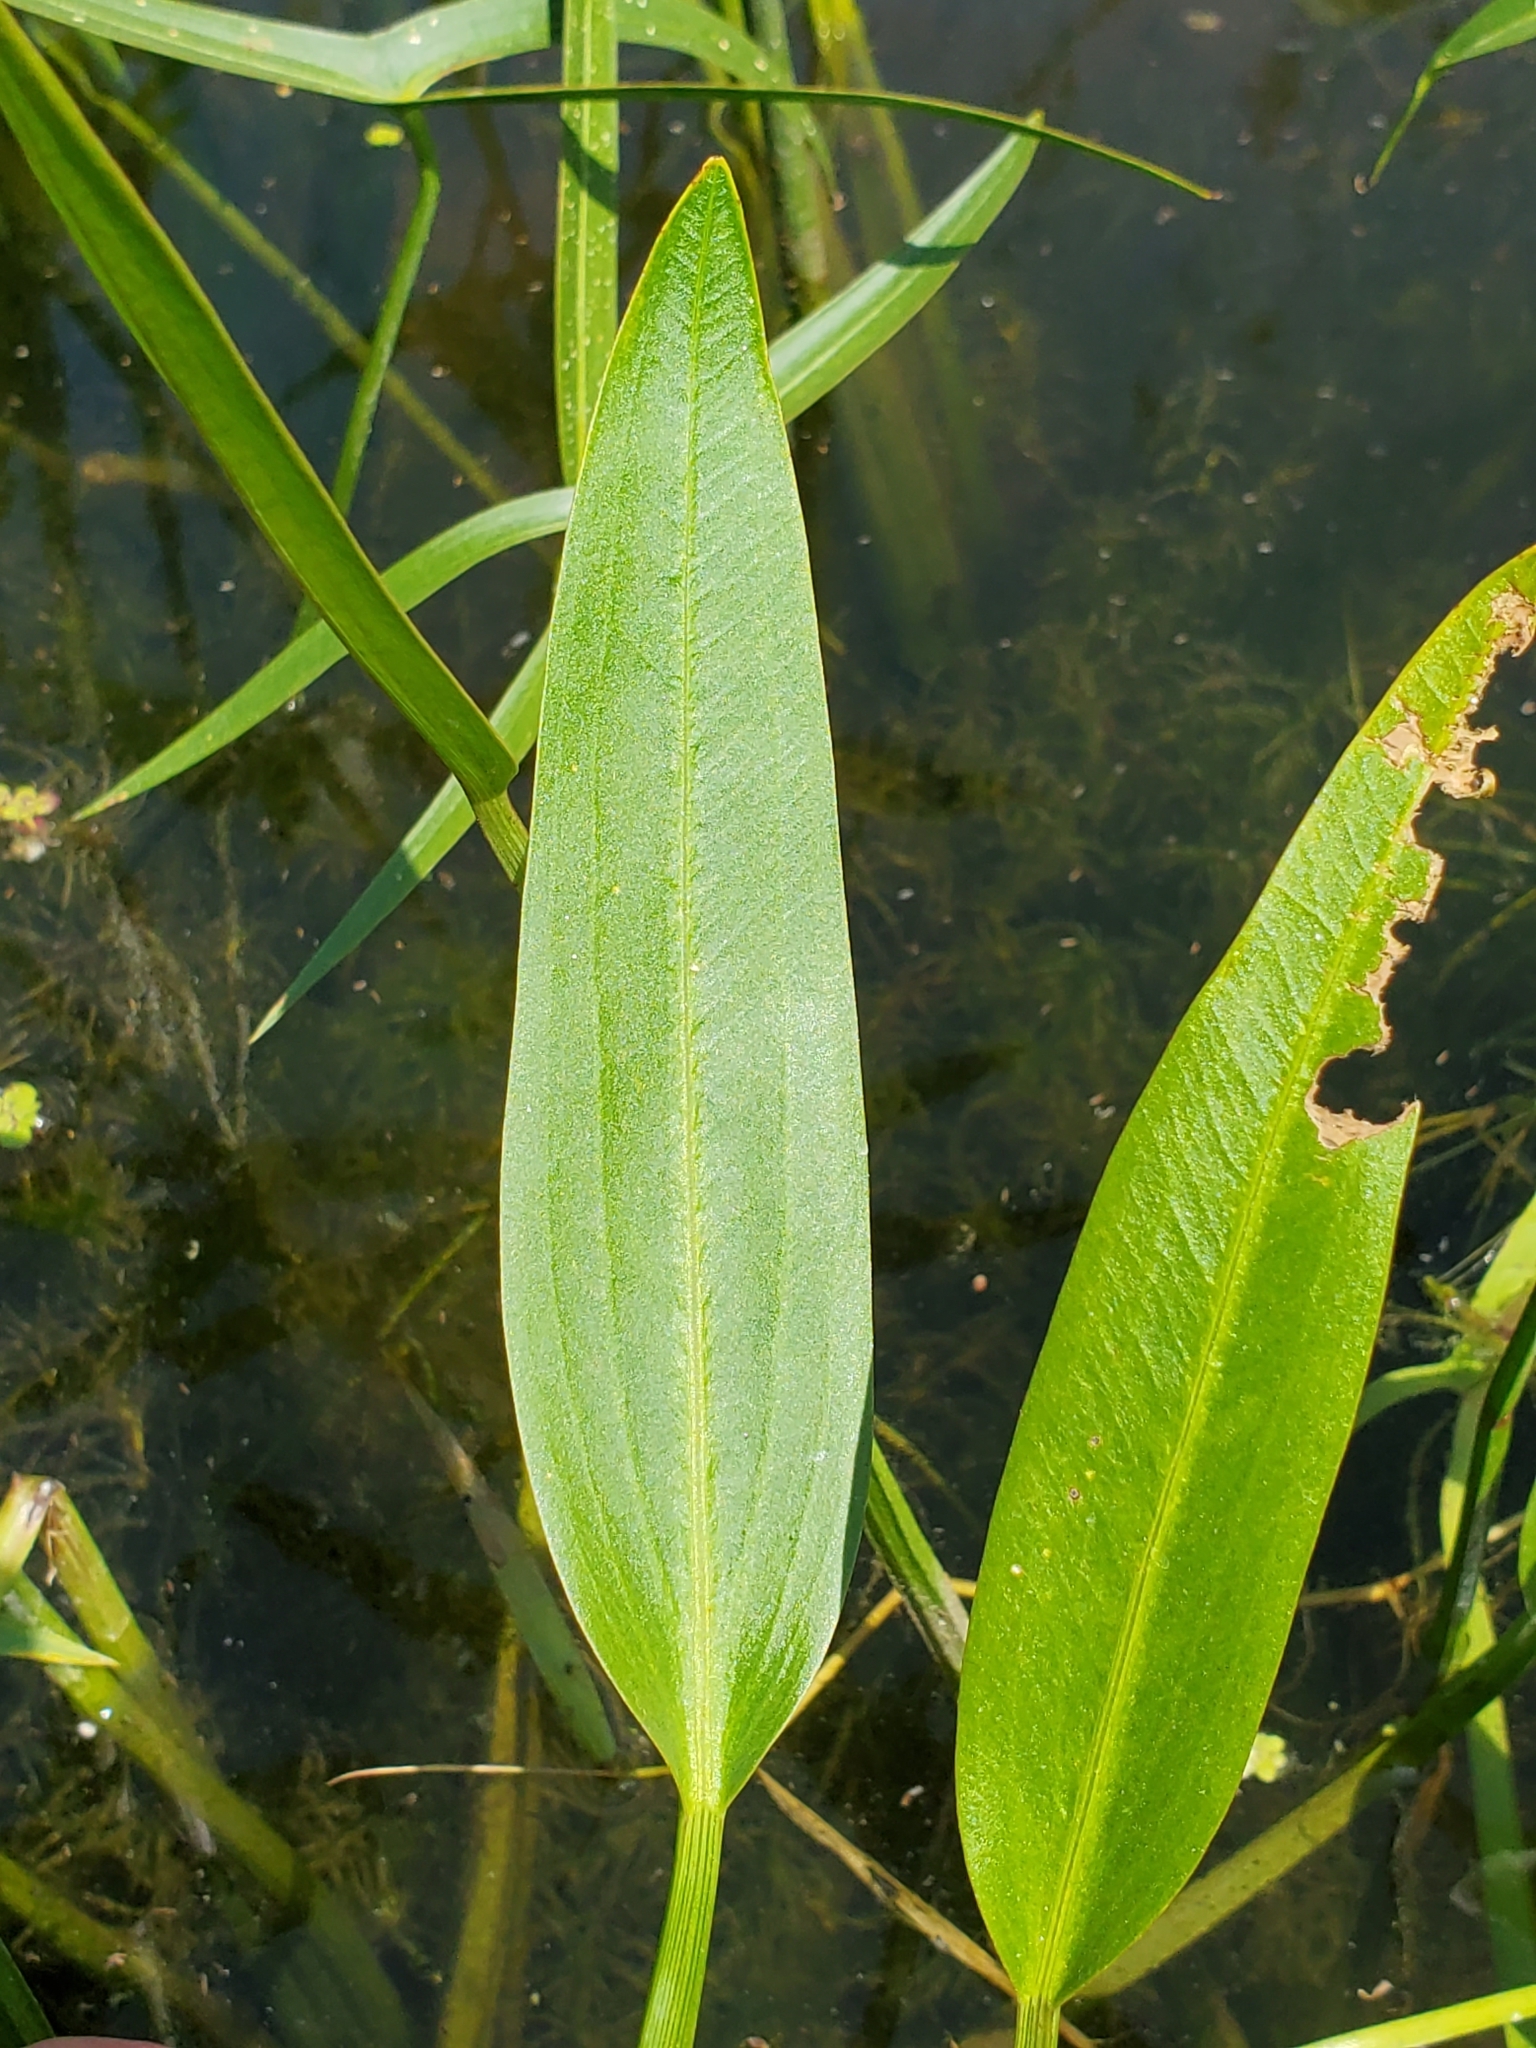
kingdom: Plantae
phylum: Tracheophyta
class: Liliopsida
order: Alismatales
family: Alismataceae
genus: Sagittaria
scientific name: Sagittaria rigida
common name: Canadian arrowhead
